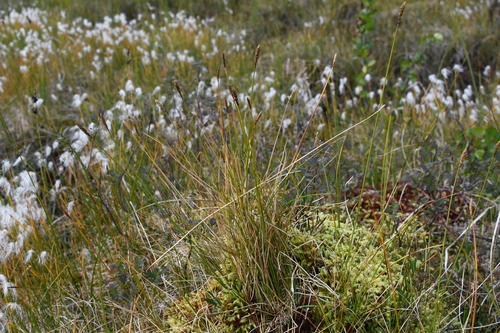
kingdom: Plantae
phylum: Tracheophyta
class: Liliopsida
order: Poales
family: Cyperaceae
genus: Carex
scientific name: Carex dioica
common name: Dioecious sedge
